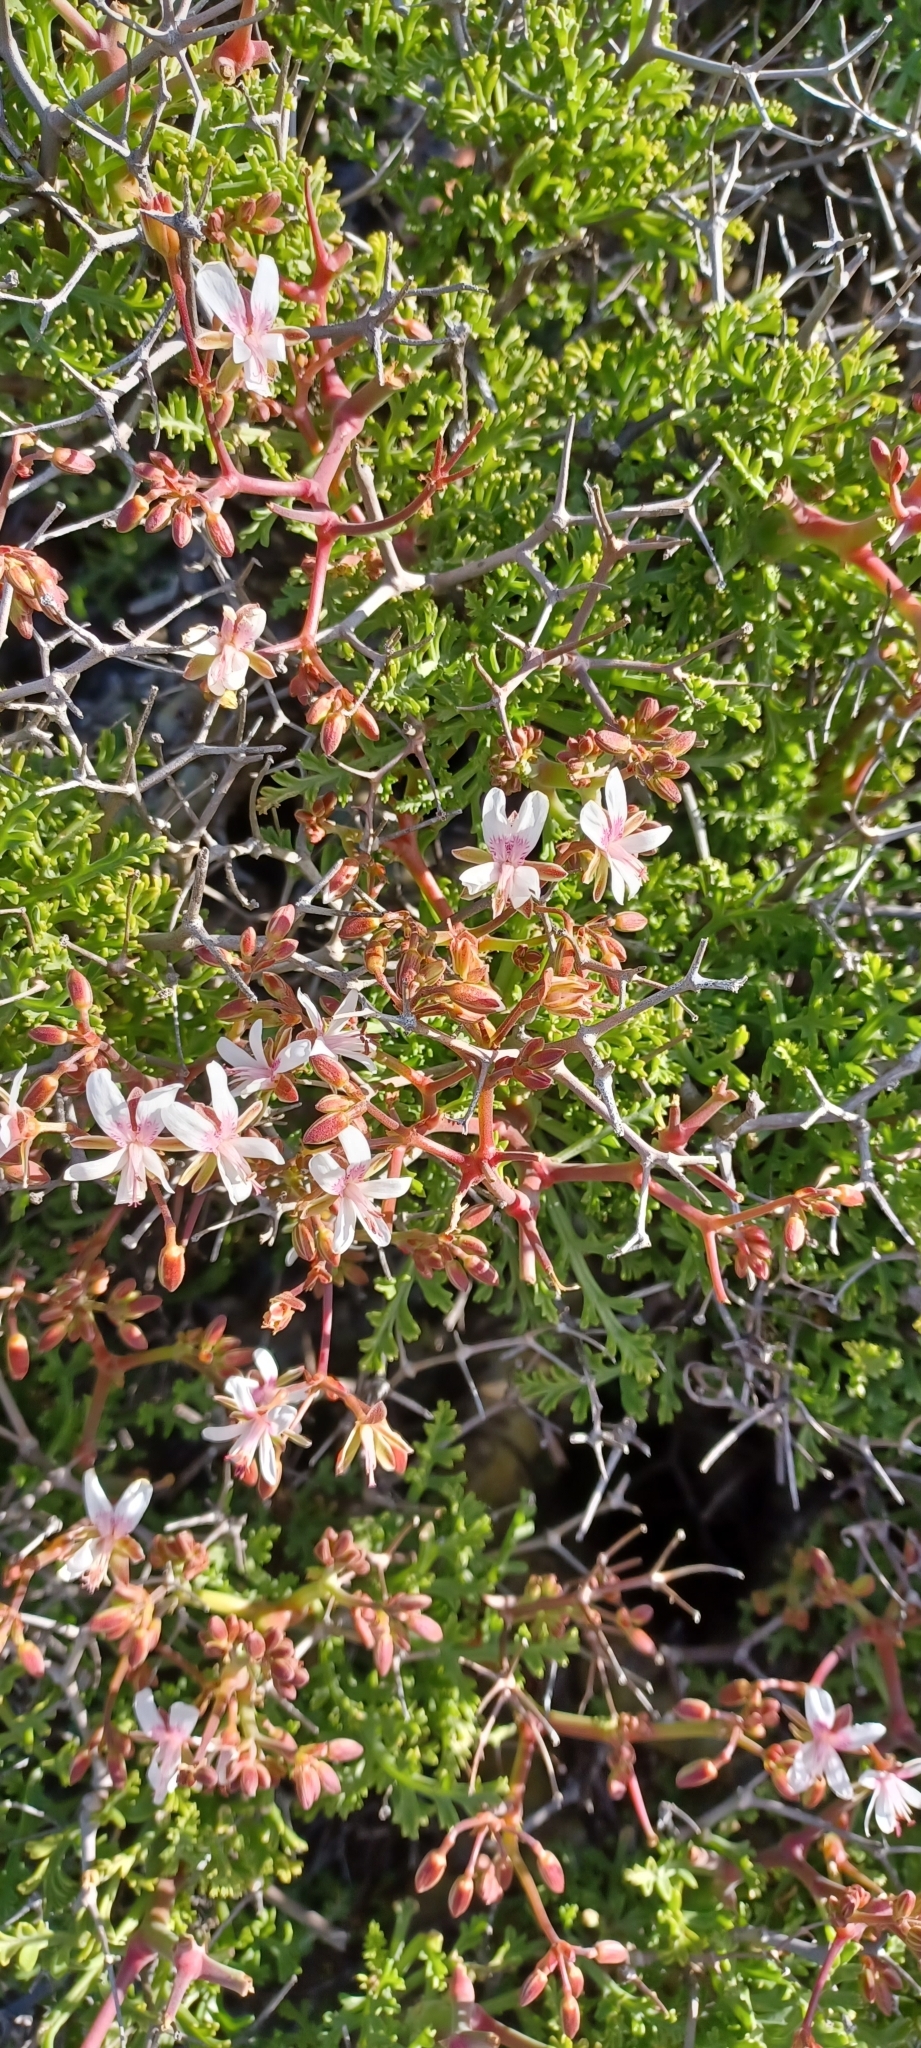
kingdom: Plantae
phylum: Tracheophyta
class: Magnoliopsida
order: Geraniales
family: Geraniaceae
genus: Pelargonium
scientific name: Pelargonium crithmifolium
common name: Samphire-leaf pelargonium
